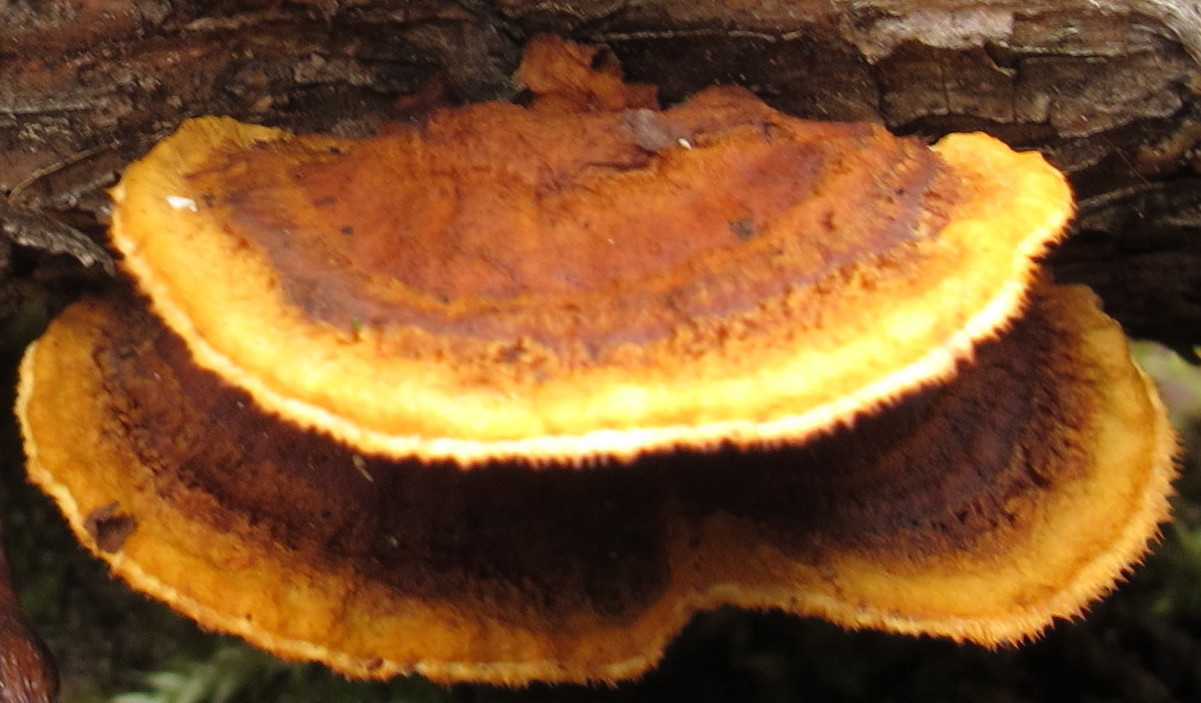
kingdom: Fungi
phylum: Basidiomycota
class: Agaricomycetes
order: Gloeophyllales
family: Gloeophyllaceae
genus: Gloeophyllum
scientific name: Gloeophyllum sepiarium
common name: Conifer mazegill
